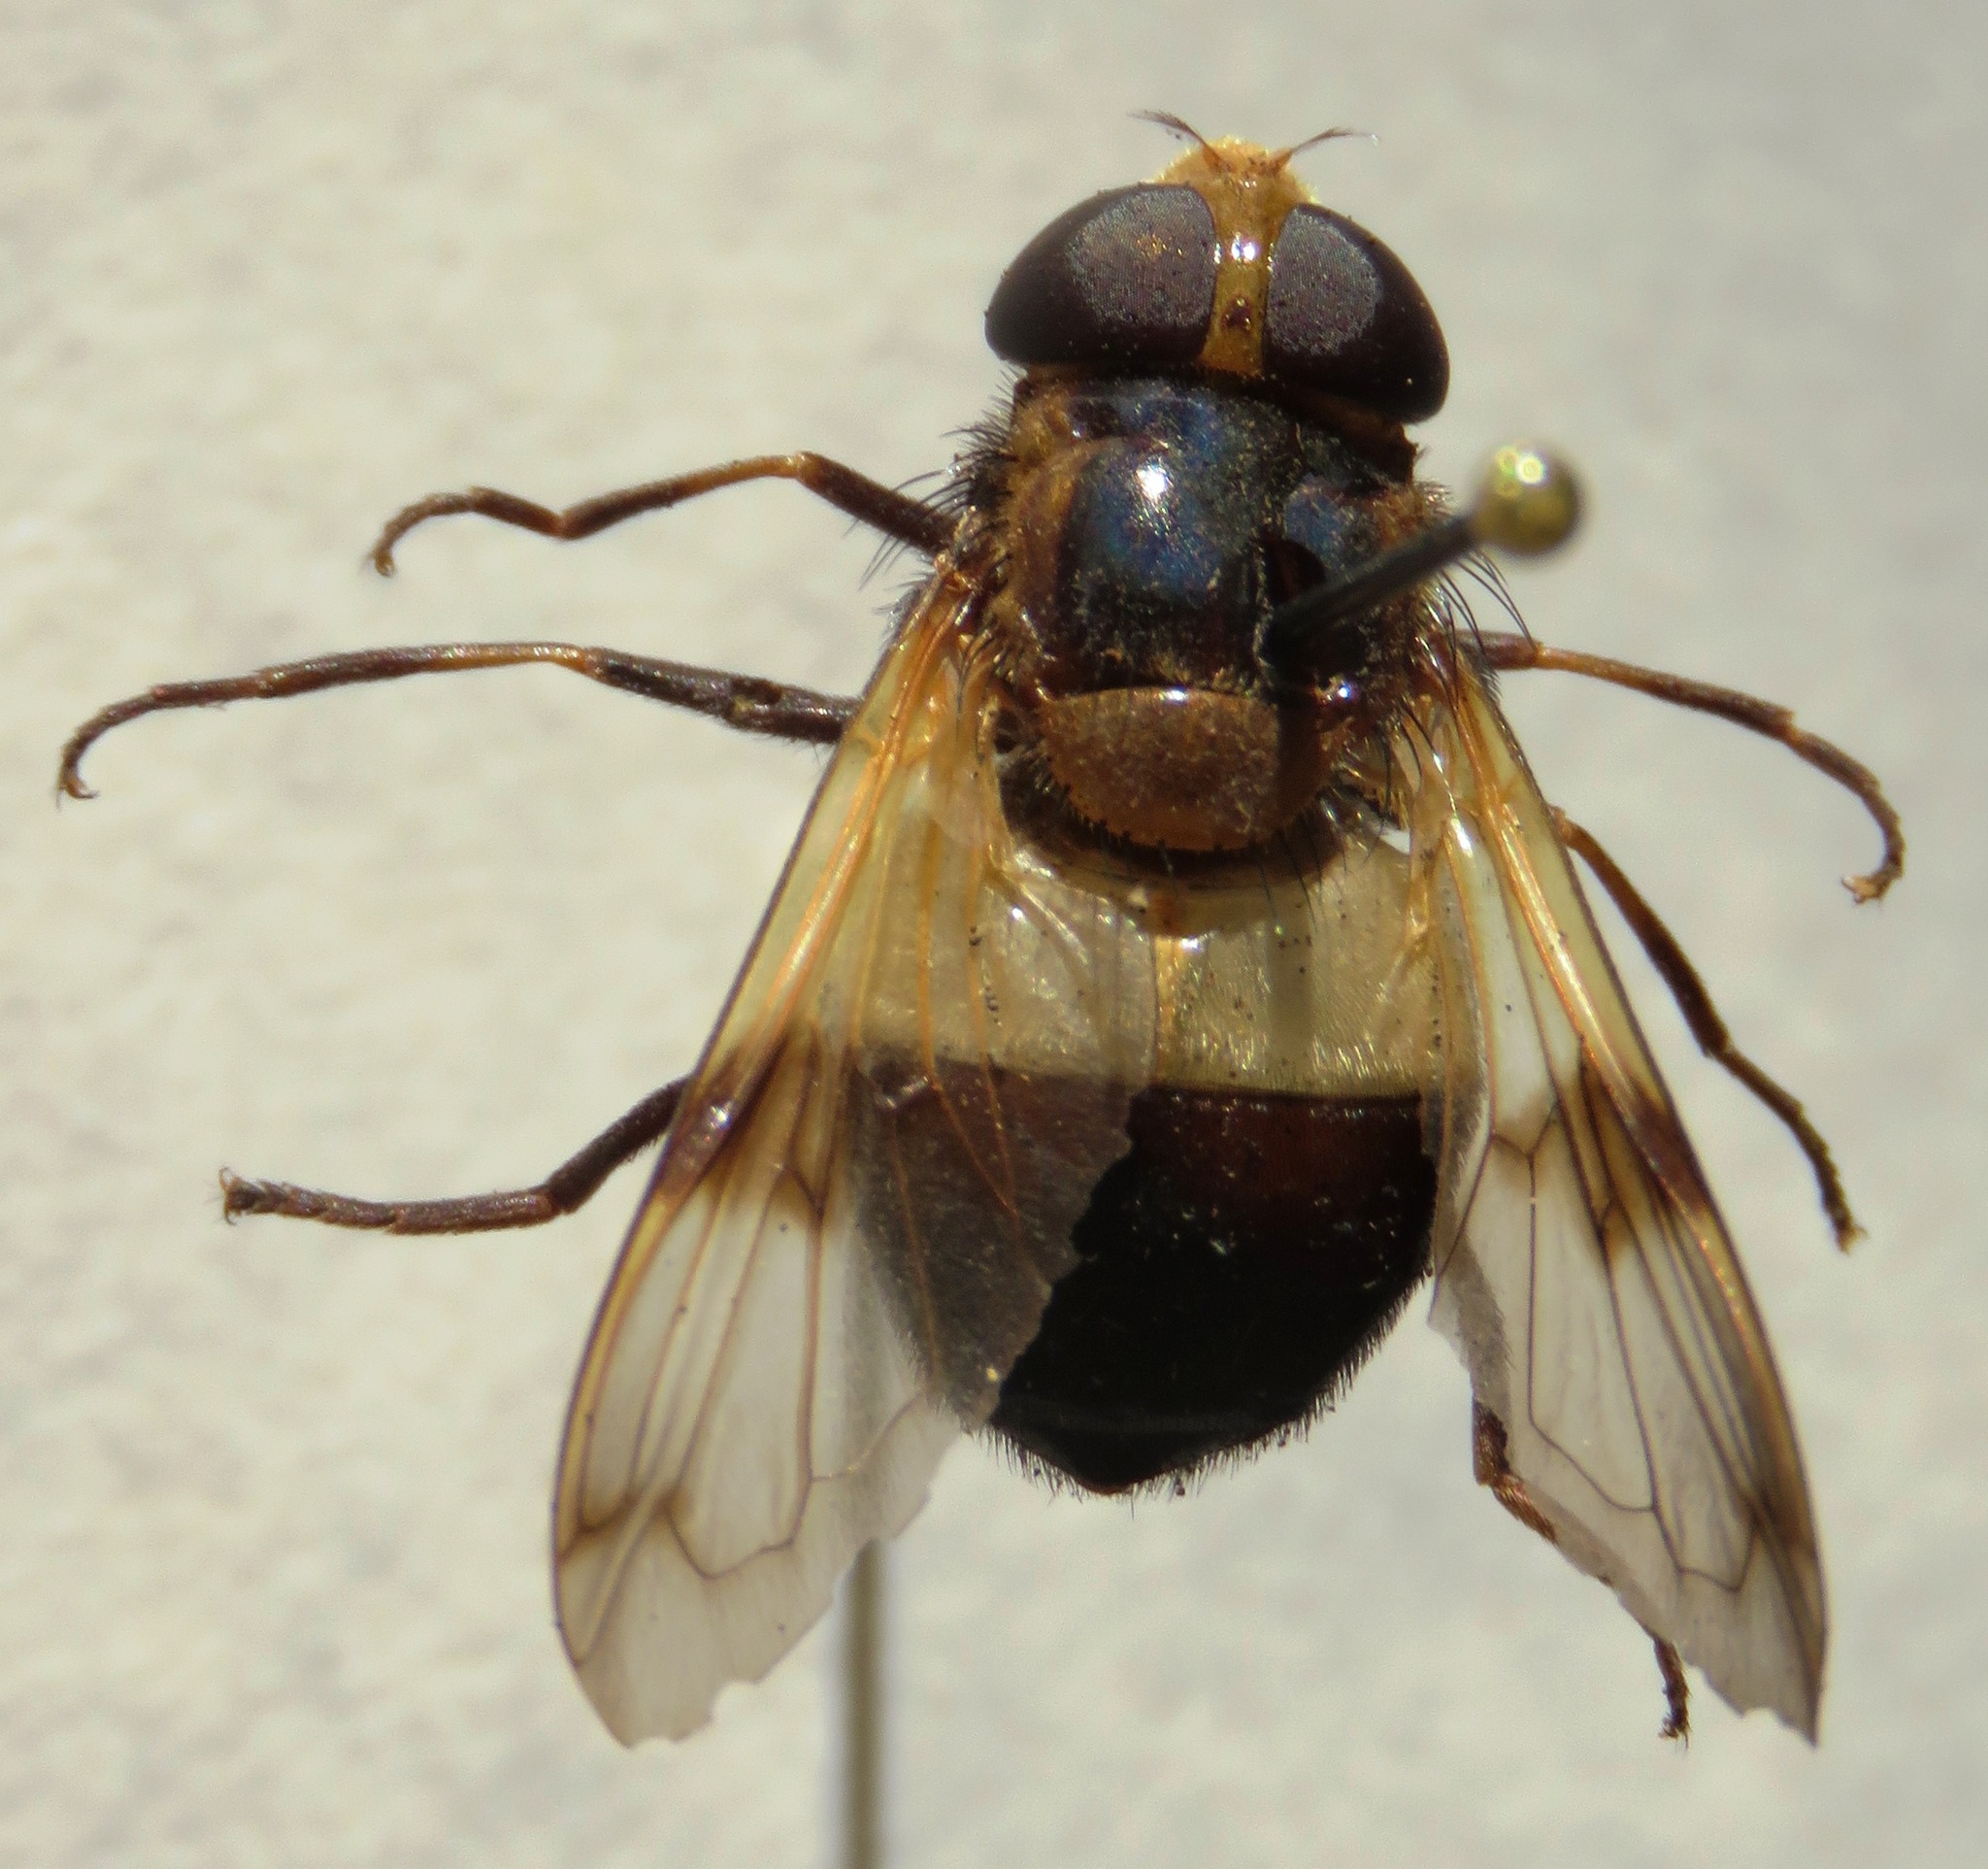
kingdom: Animalia
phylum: Arthropoda
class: Insecta
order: Diptera
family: Syrphidae
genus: Volucella
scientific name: Volucella pellucens
